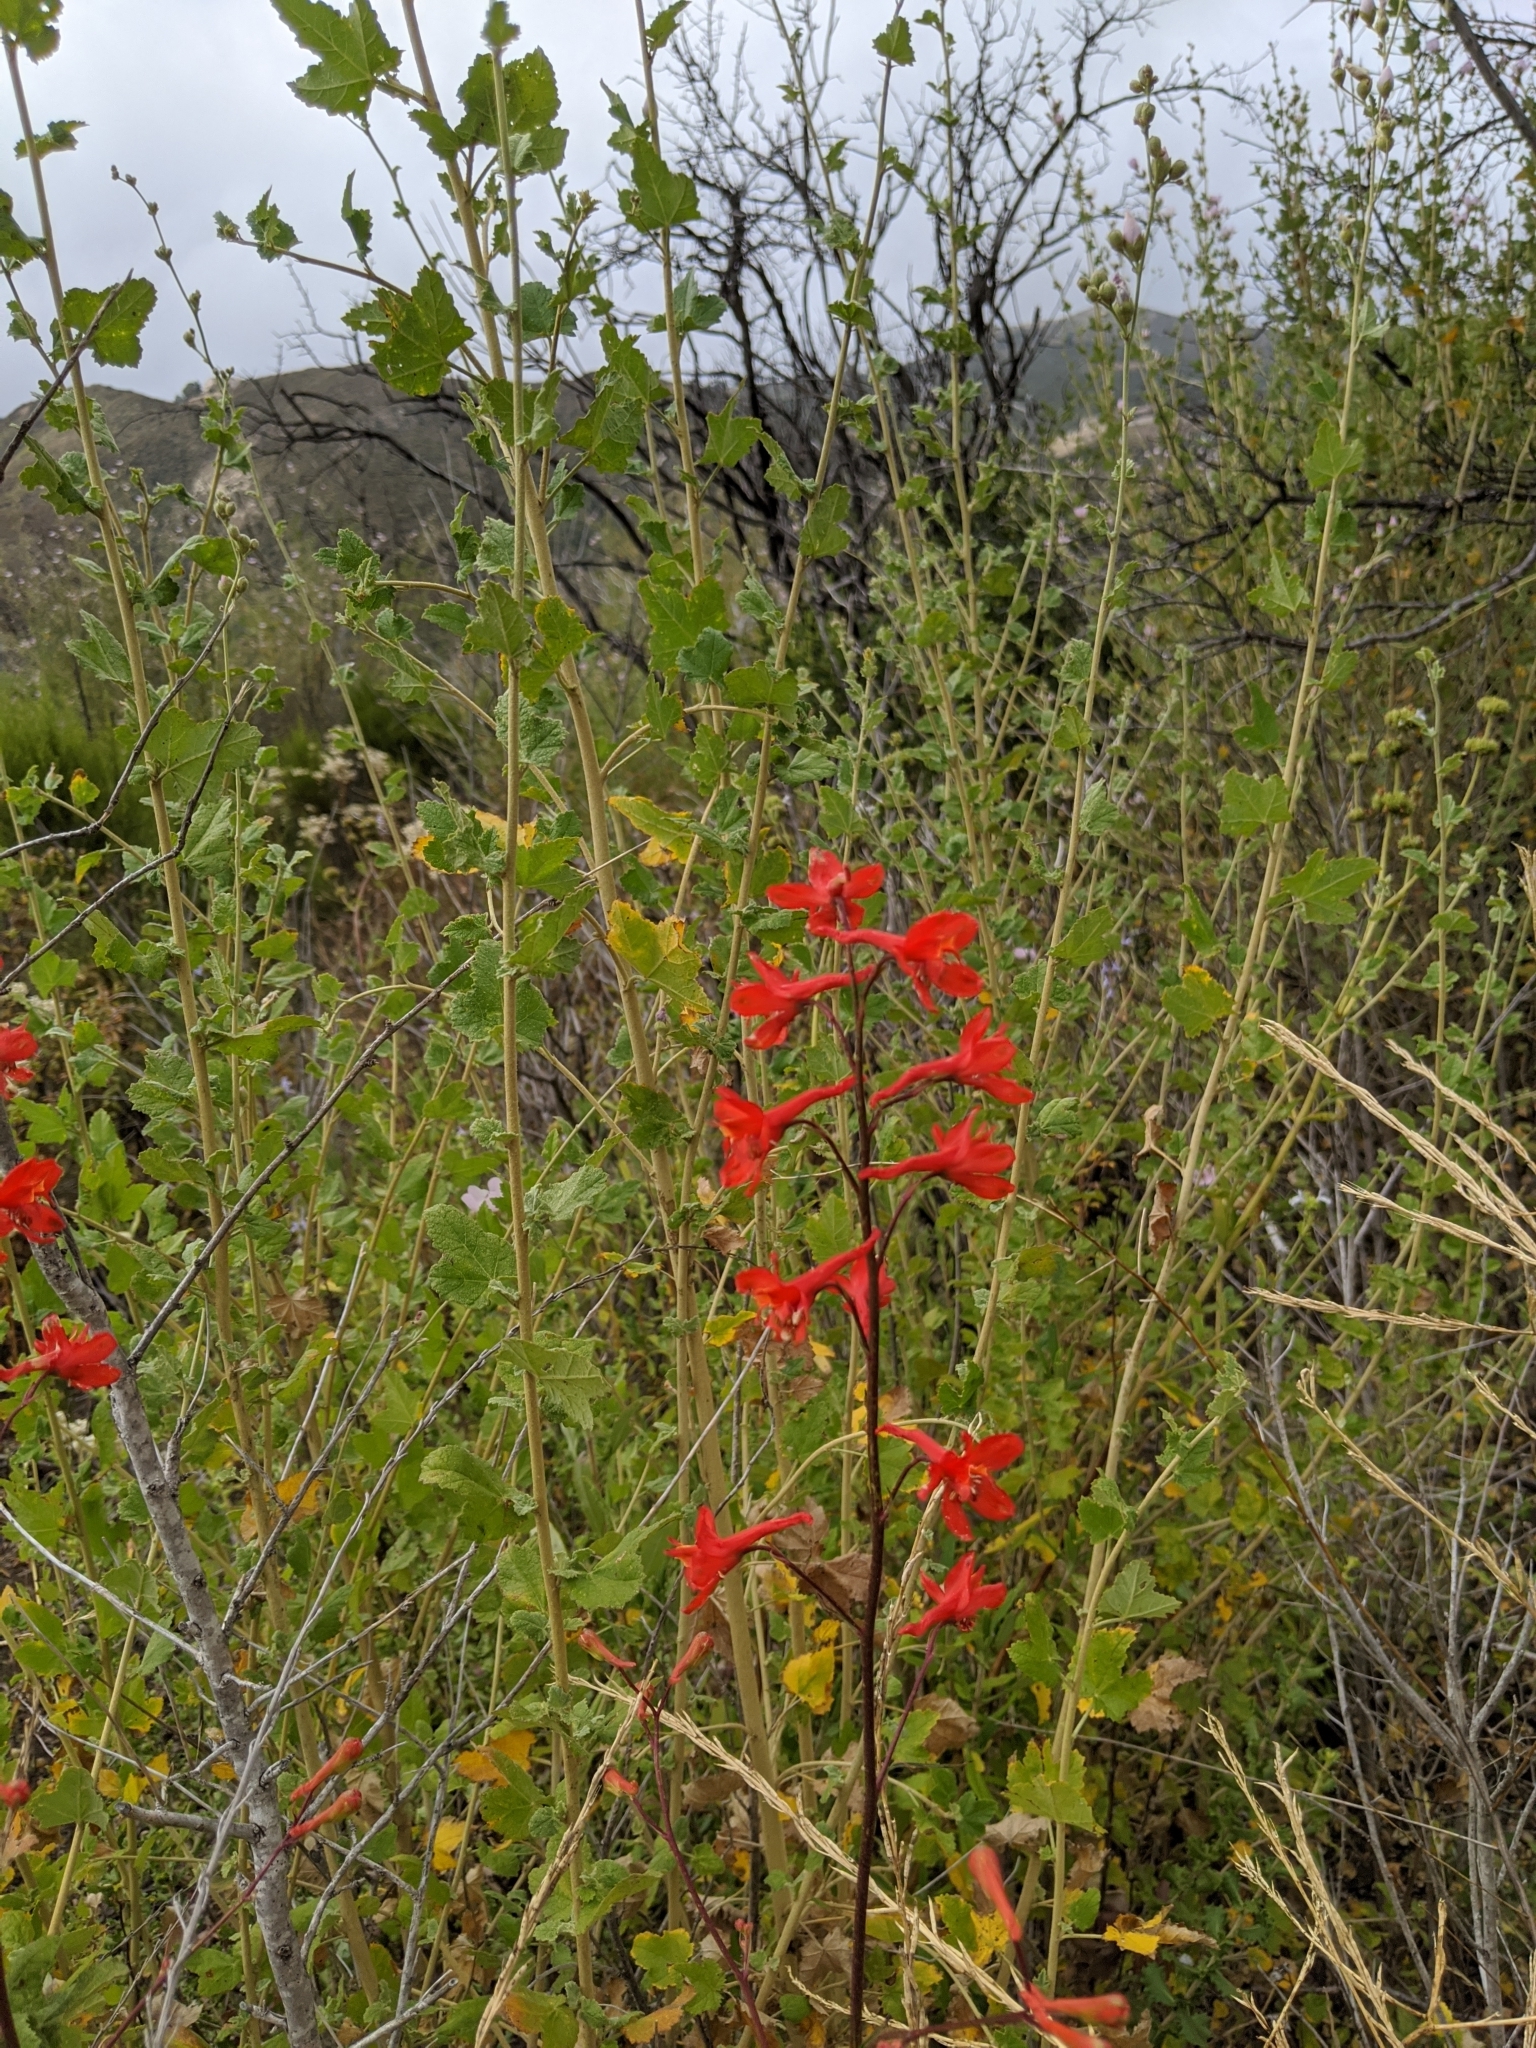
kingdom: Plantae
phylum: Tracheophyta
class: Magnoliopsida
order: Ranunculales
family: Ranunculaceae
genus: Delphinium
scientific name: Delphinium cardinale
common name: Scarlet larkspur
